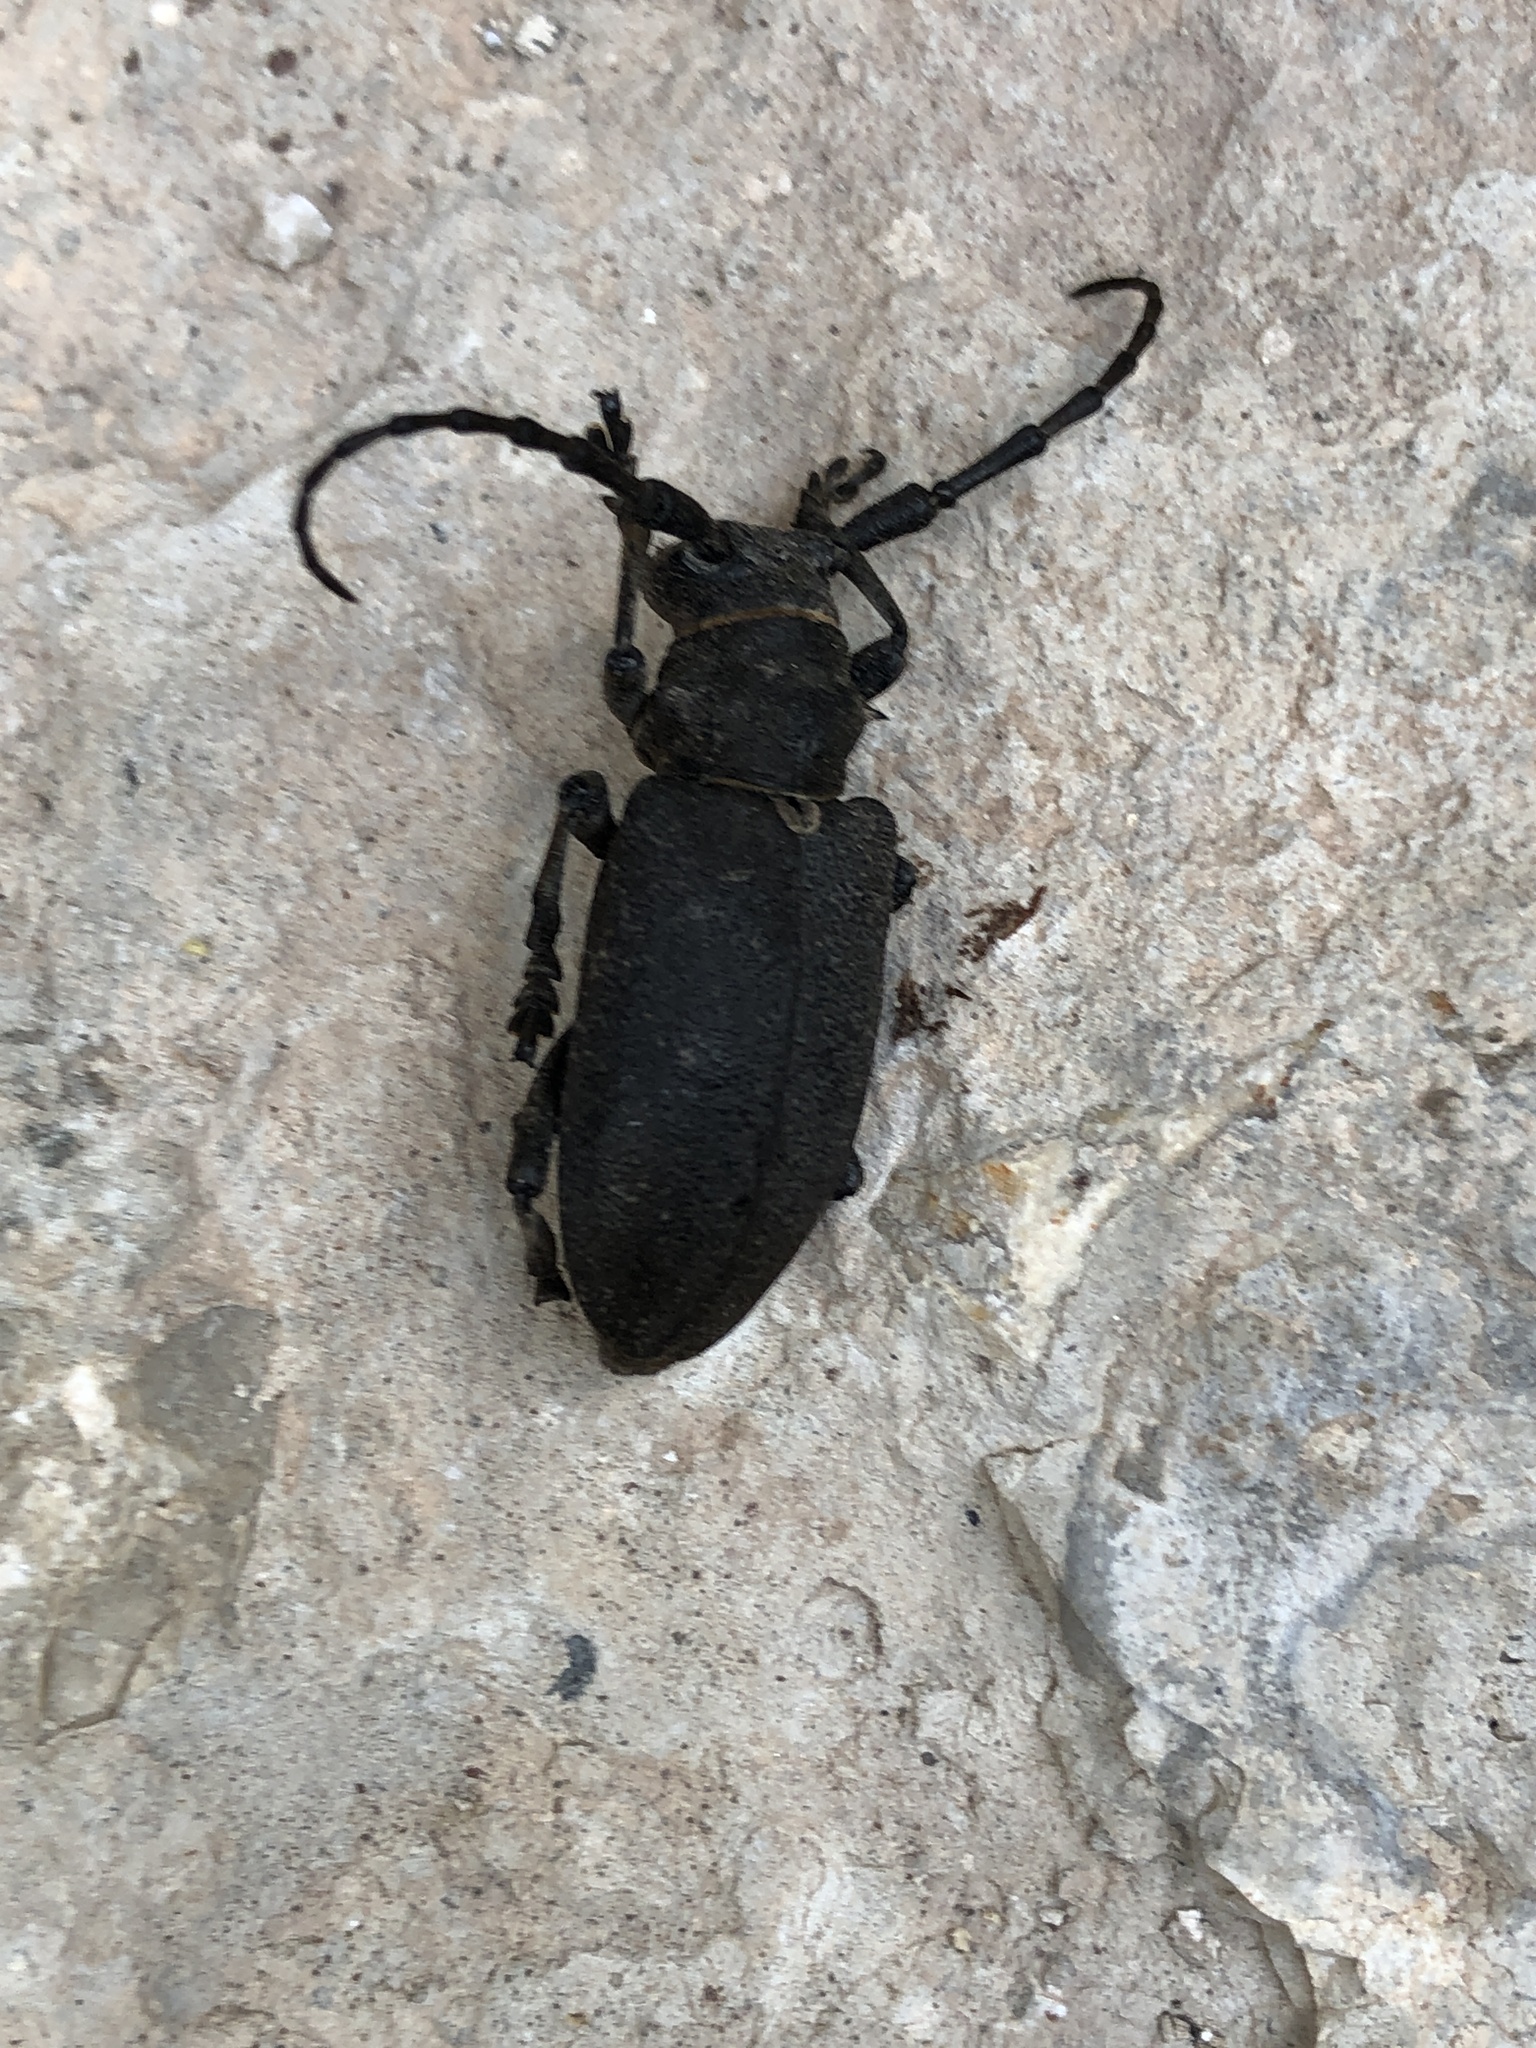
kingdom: Animalia
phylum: Arthropoda
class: Insecta
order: Coleoptera
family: Cerambycidae
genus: Lamia
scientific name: Lamia textor
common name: Weaver beetle
